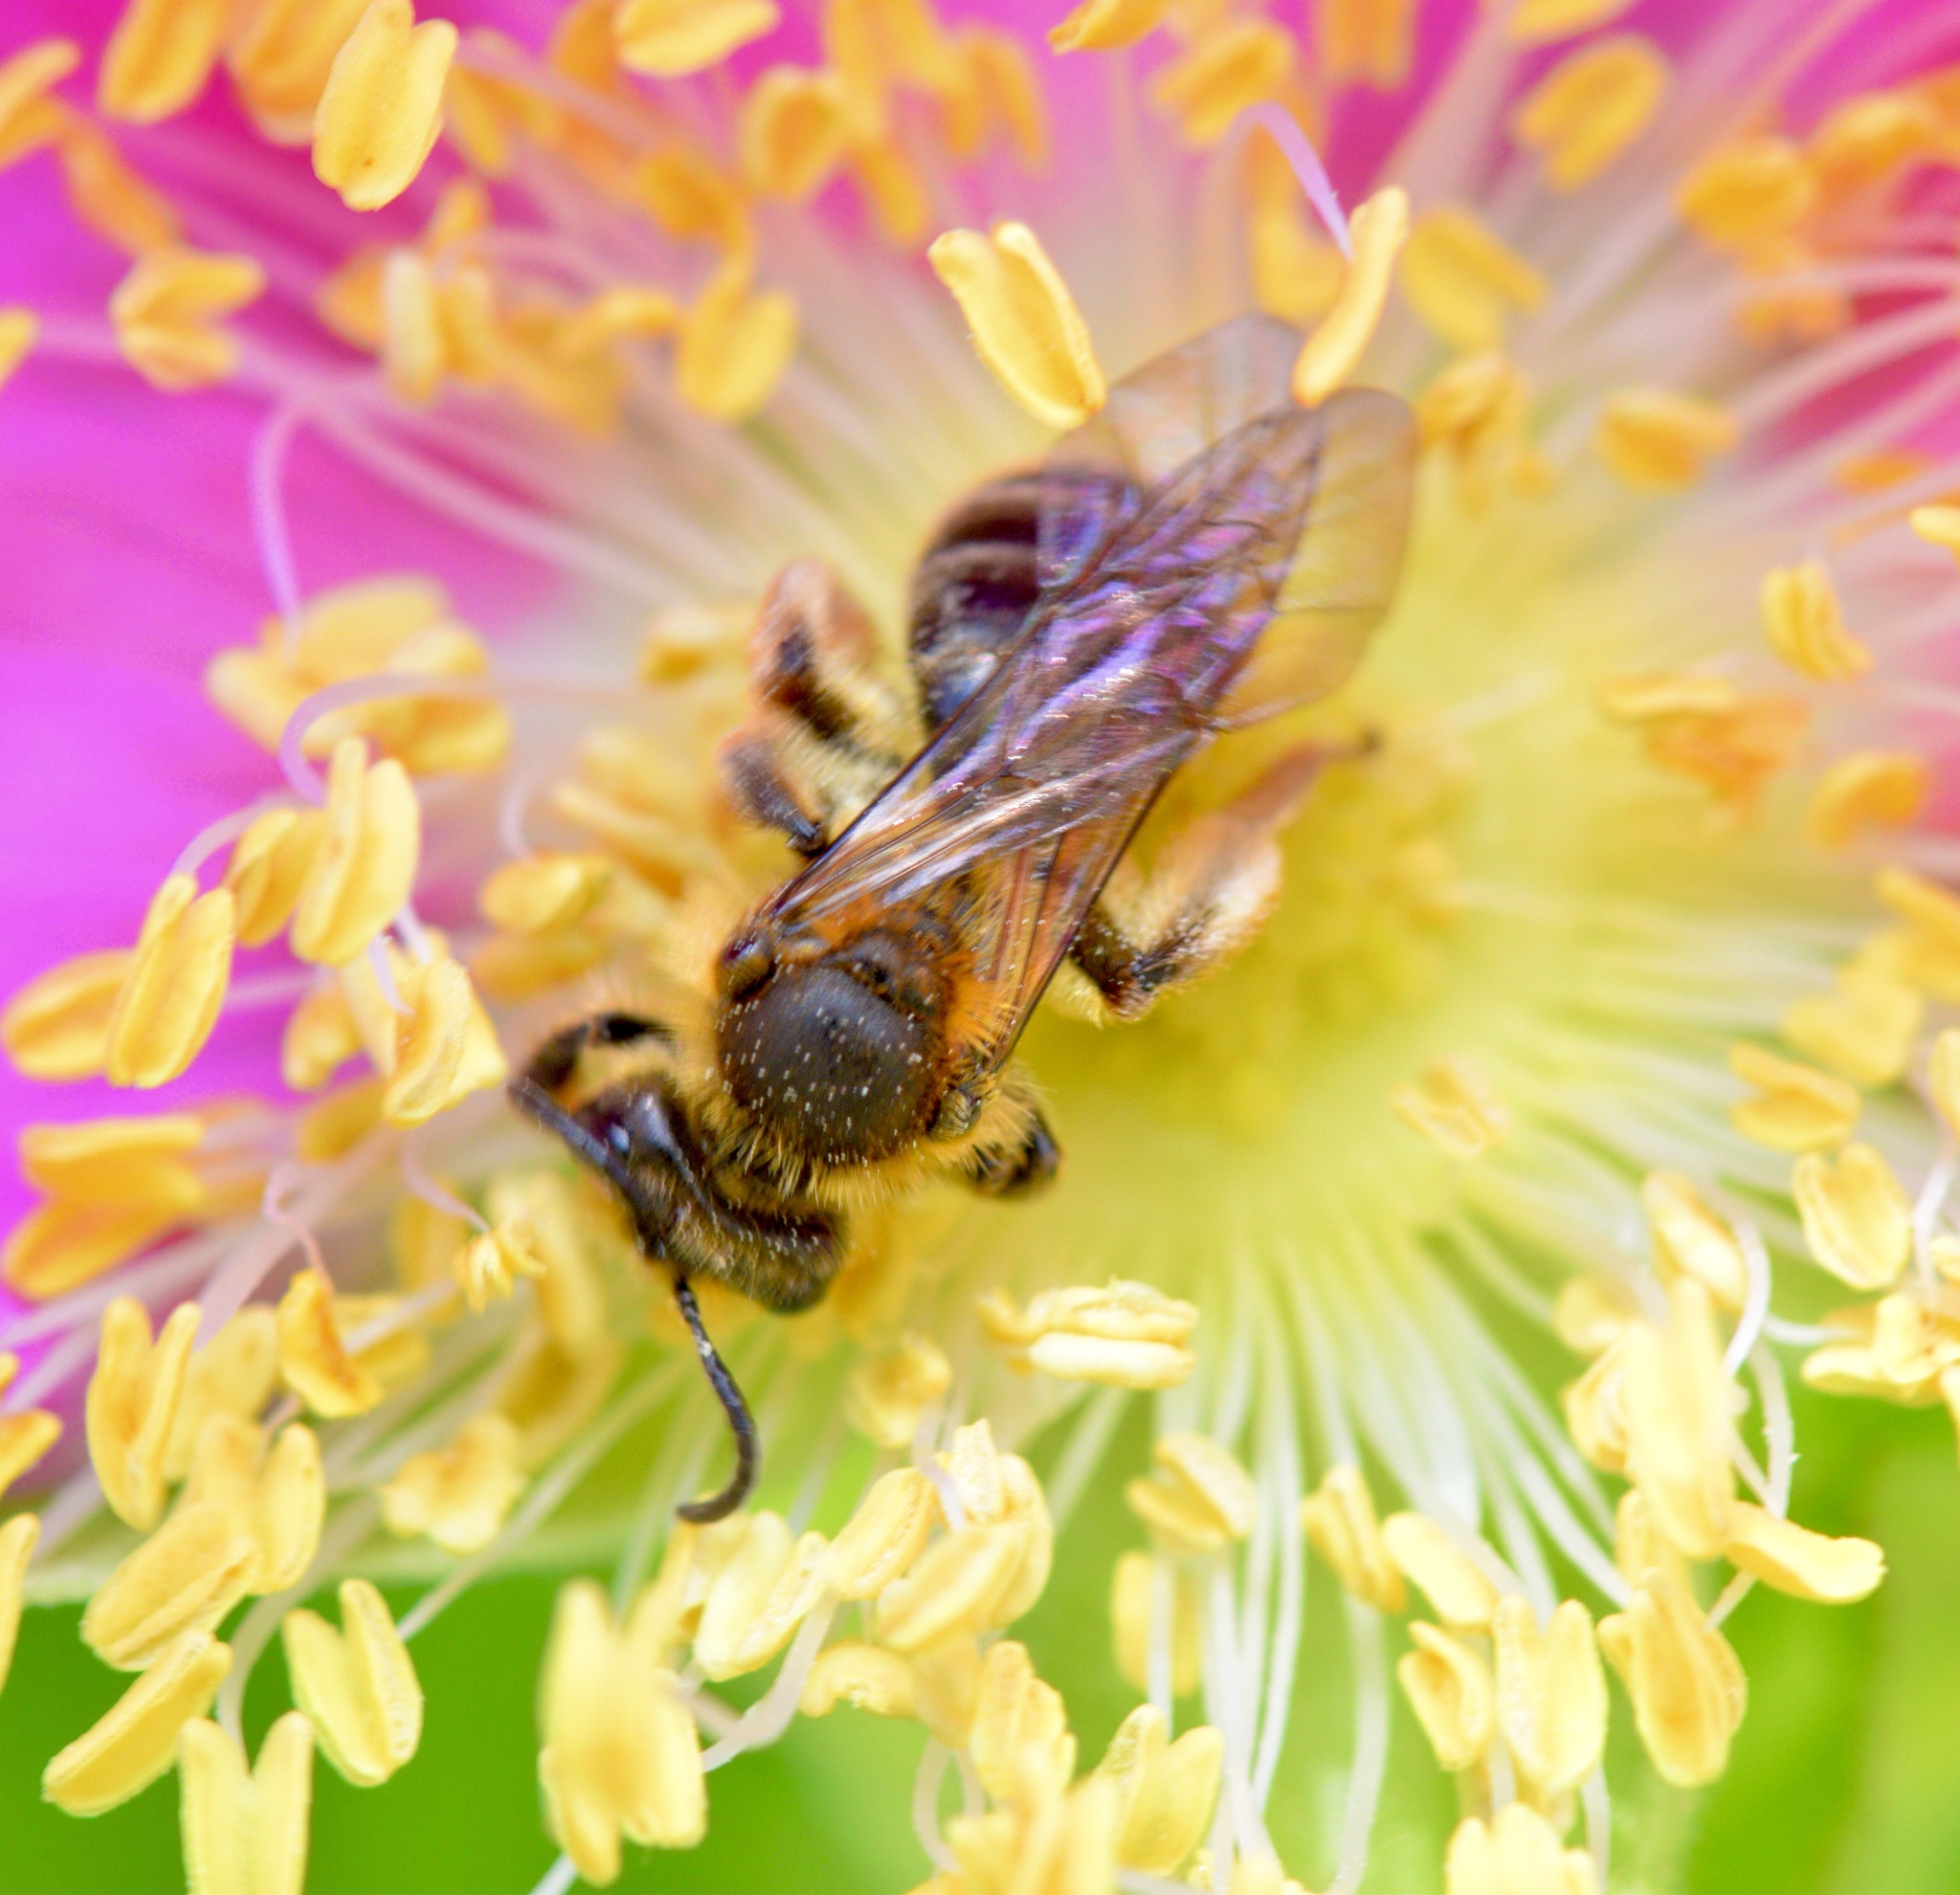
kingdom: Animalia
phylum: Arthropoda
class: Insecta
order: Hymenoptera
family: Andrenidae
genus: Andrena
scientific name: Andrena thaspii
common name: Parsnip miner bee
